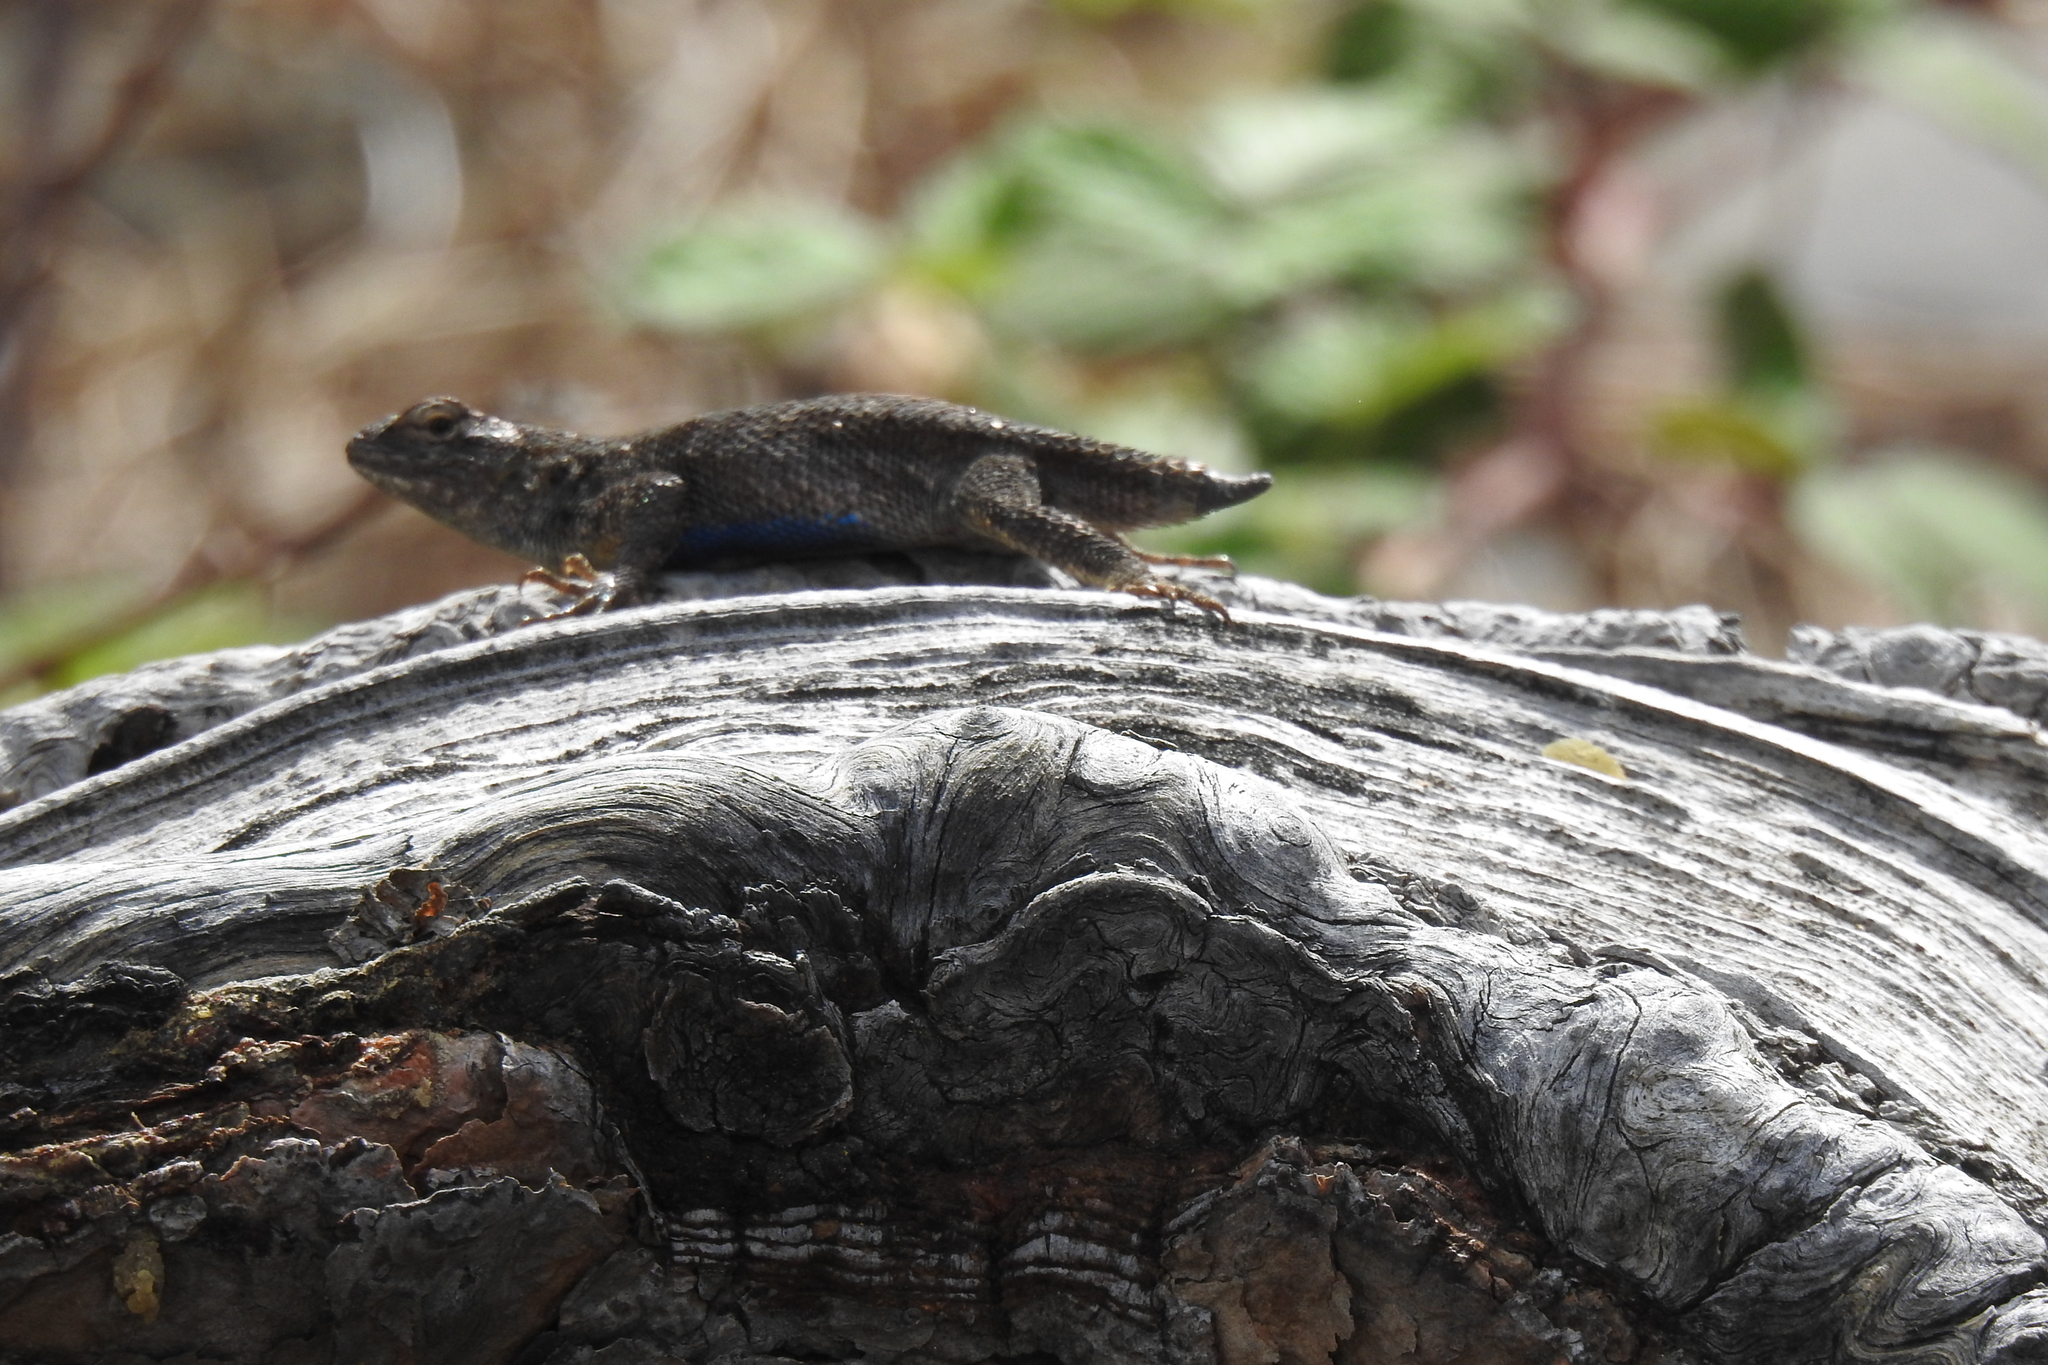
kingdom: Animalia
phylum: Chordata
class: Squamata
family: Phrynosomatidae
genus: Sceloporus
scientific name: Sceloporus occidentalis
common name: Western fence lizard
